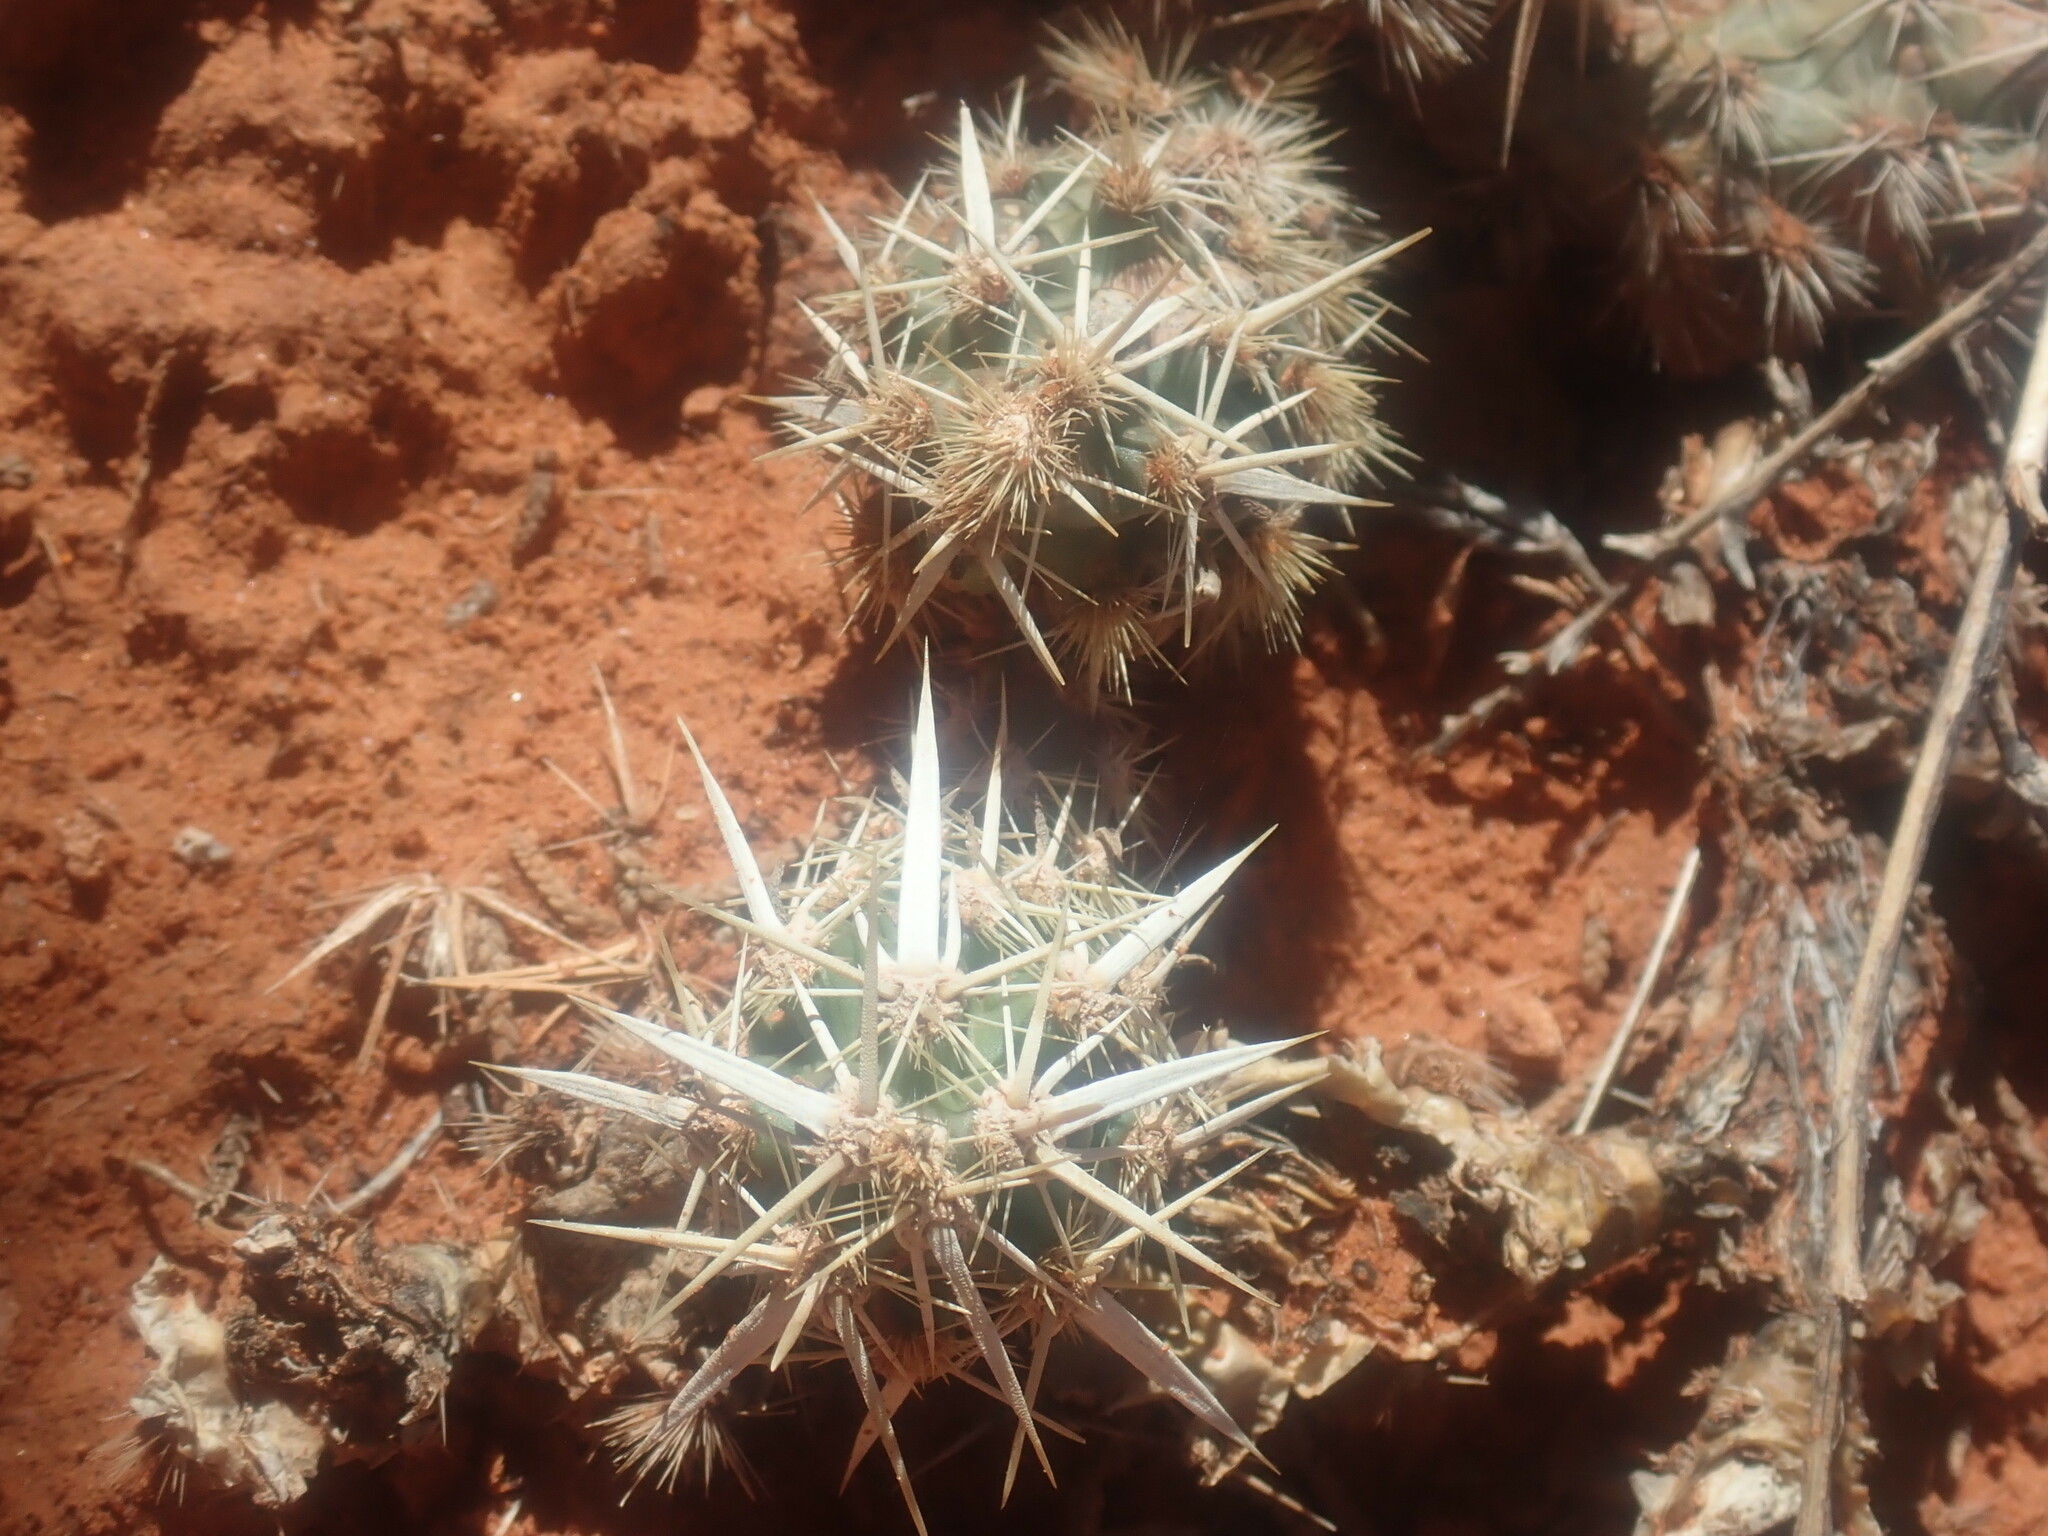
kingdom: Plantae
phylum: Tracheophyta
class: Magnoliopsida
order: Caryophyllales
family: Cactaceae
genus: Grusonia
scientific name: Grusonia clavata
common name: Club cholla
